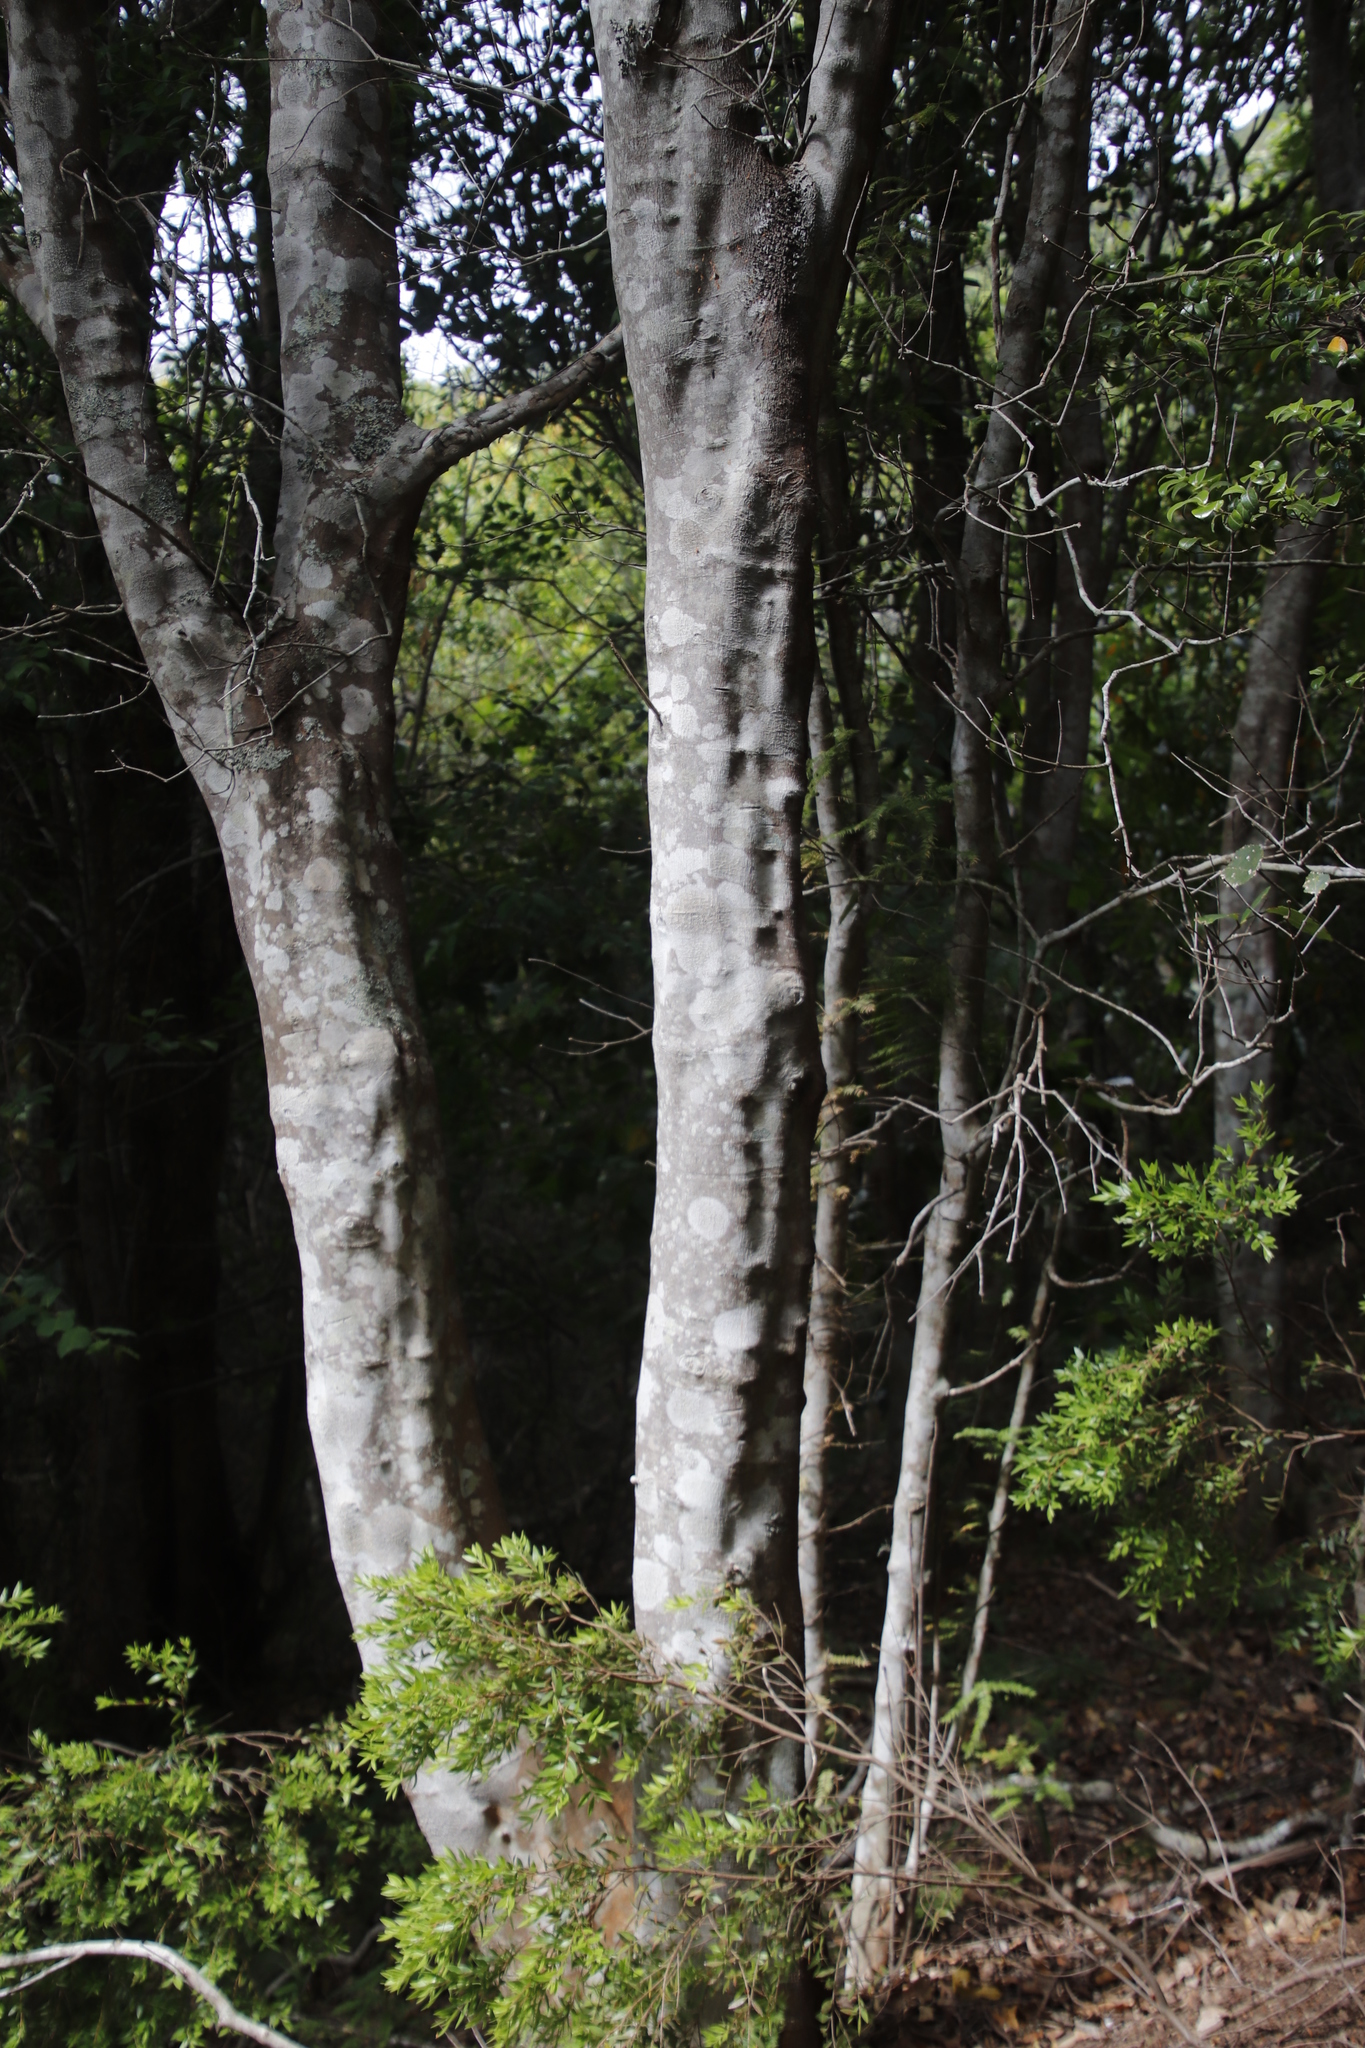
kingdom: Plantae
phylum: Tracheophyta
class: Magnoliopsida
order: Celastrales
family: Celastraceae
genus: Cassine
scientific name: Cassine peragua
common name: Cape saffron
